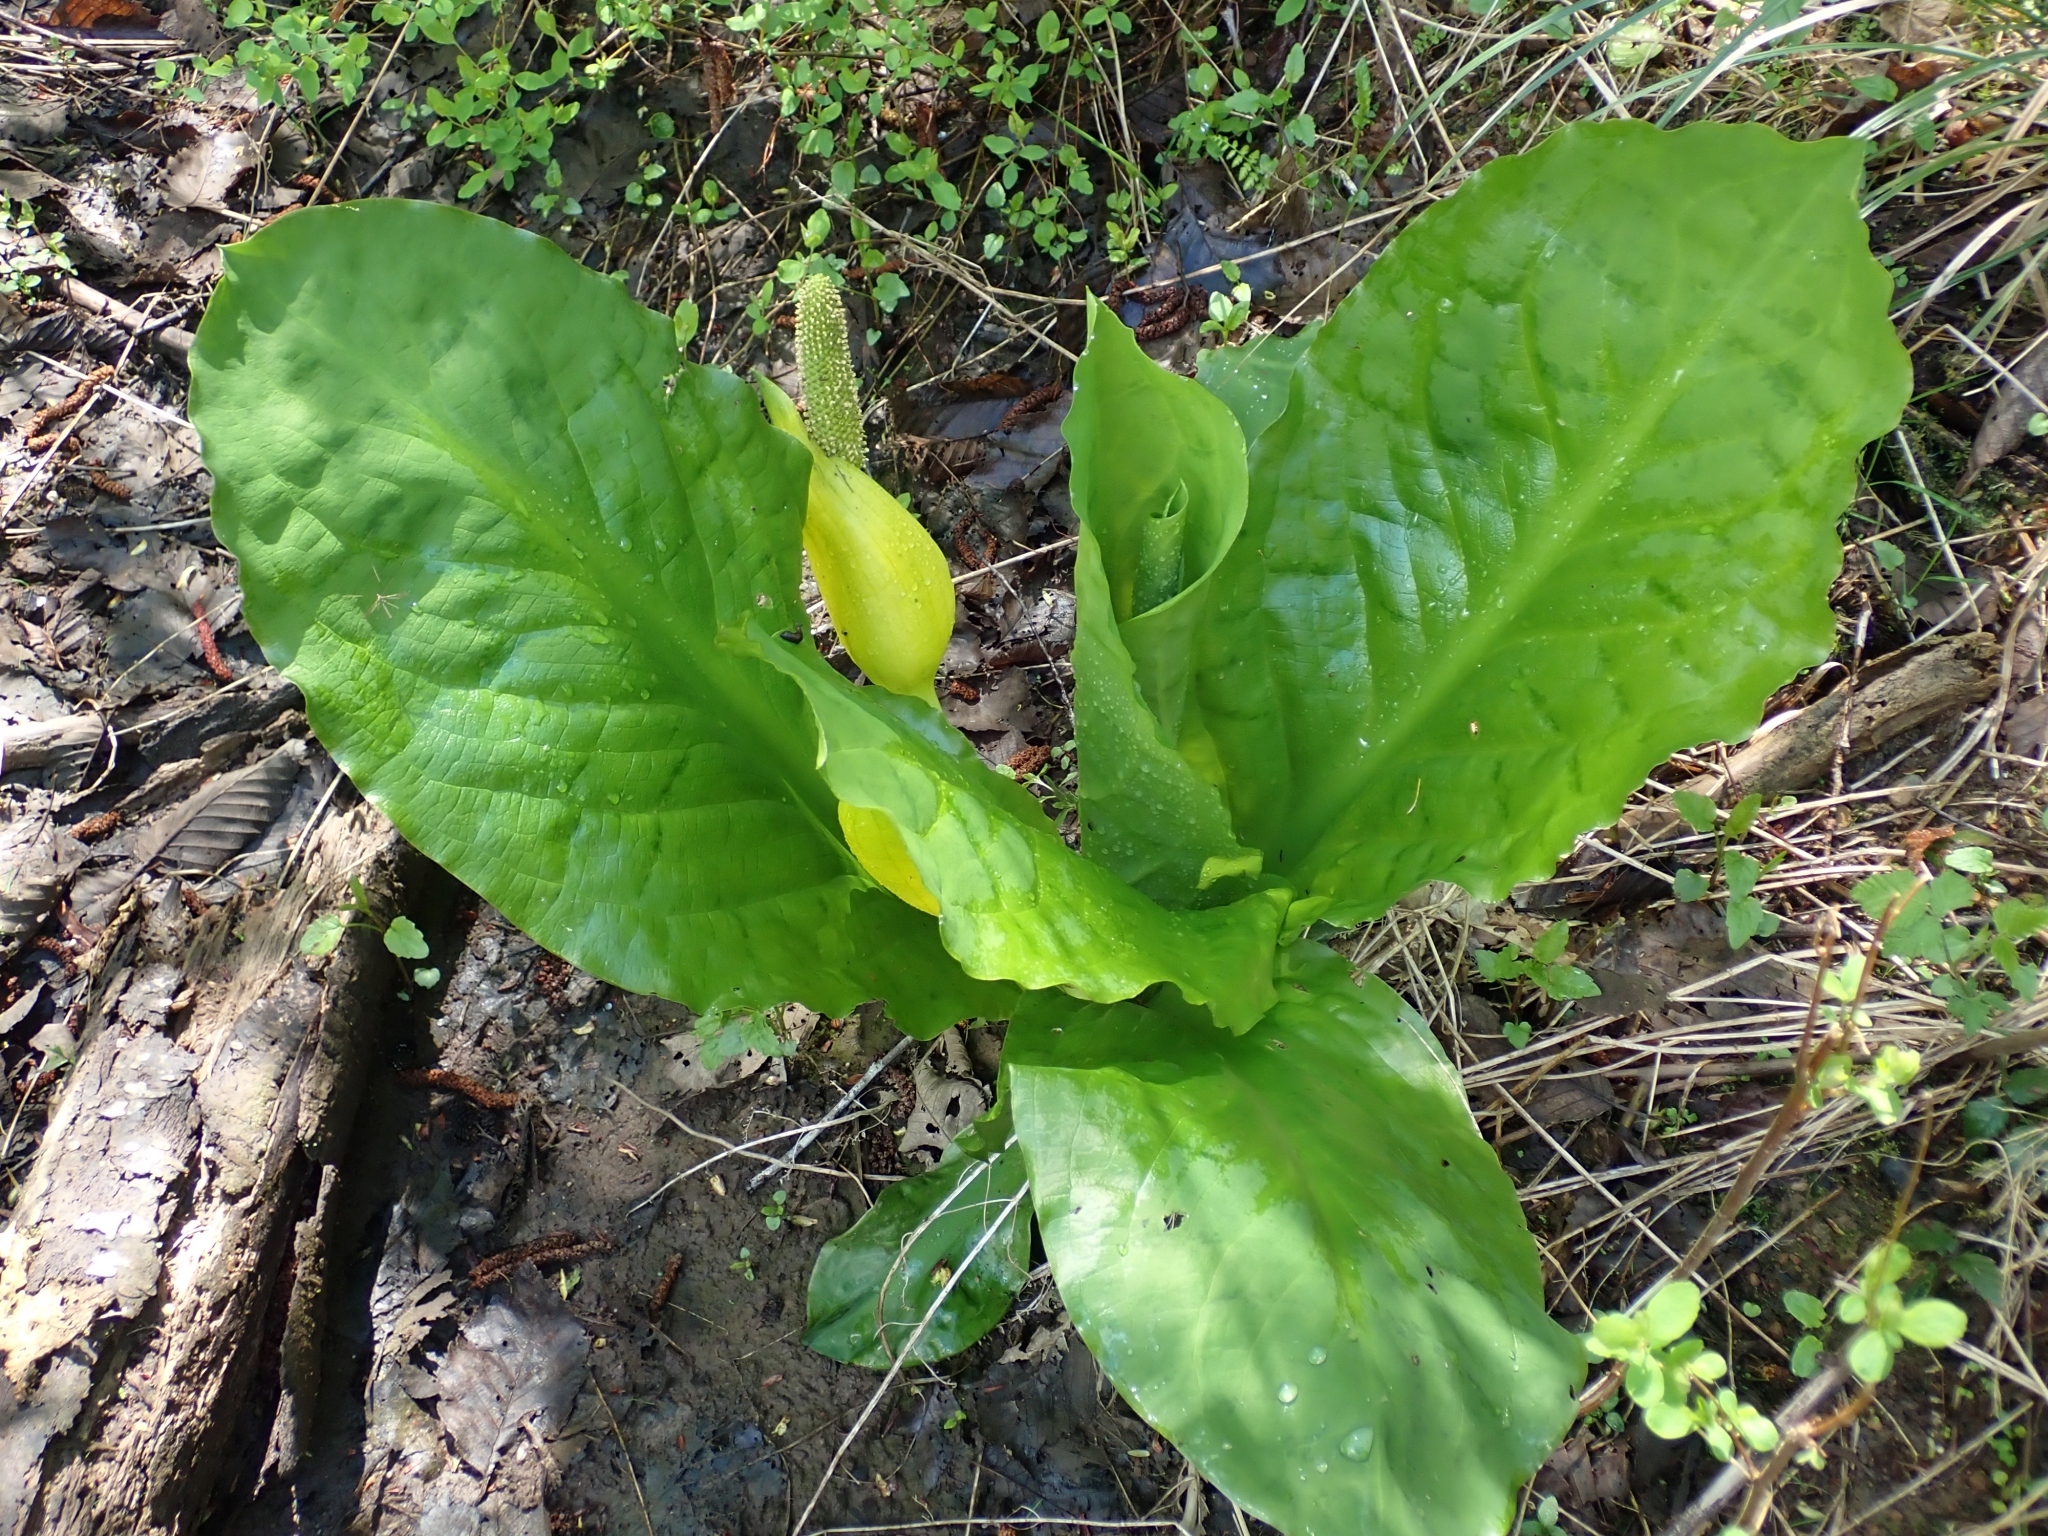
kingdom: Plantae
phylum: Tracheophyta
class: Liliopsida
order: Alismatales
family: Araceae
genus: Lysichiton
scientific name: Lysichiton americanus
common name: American skunk cabbage
